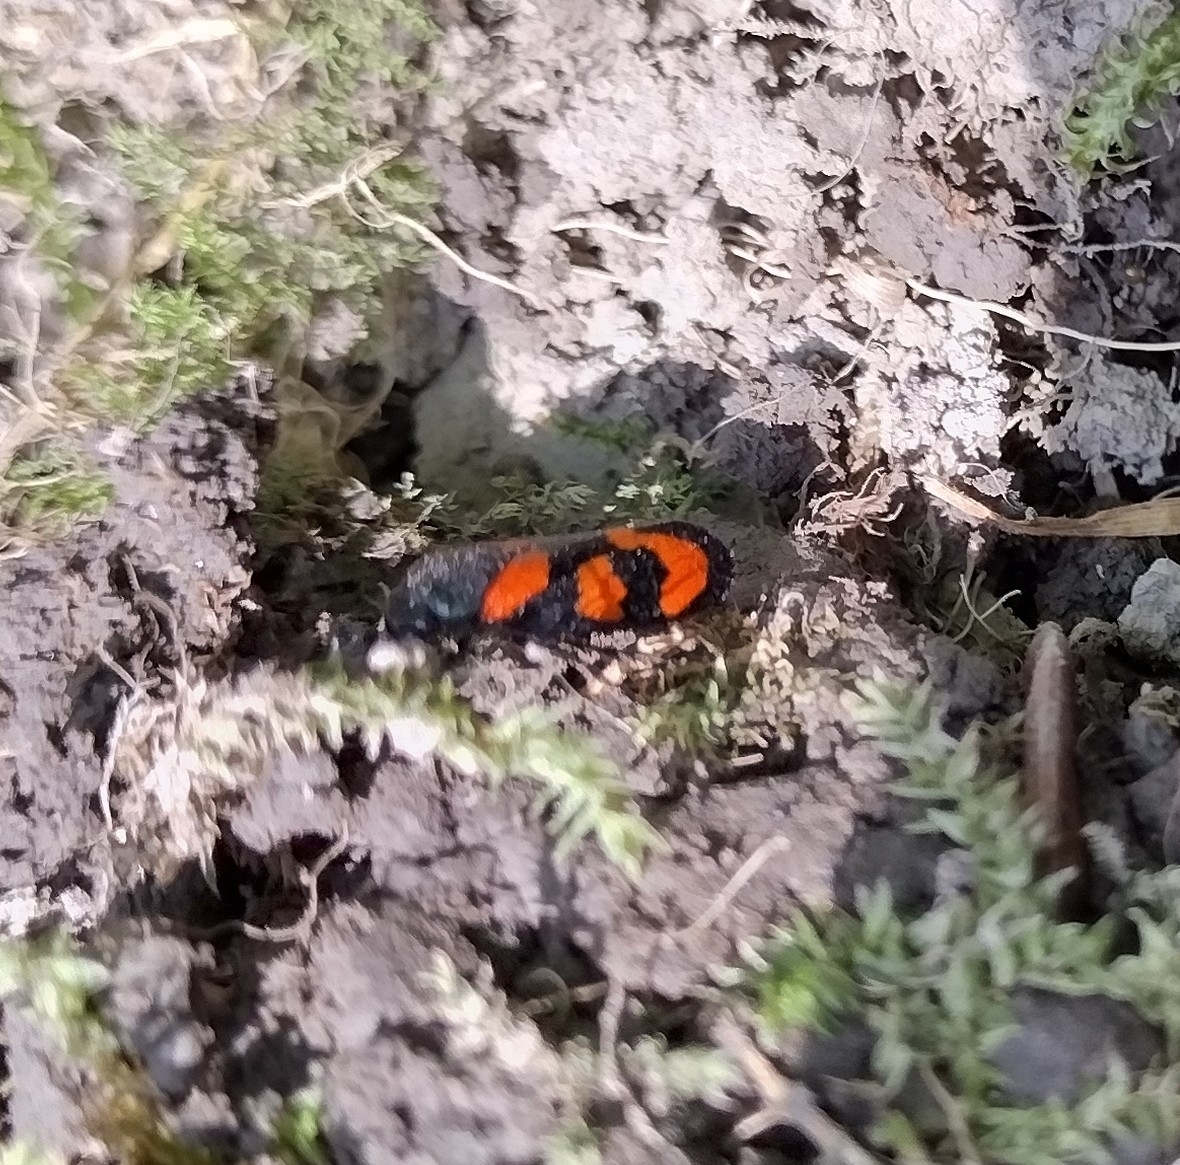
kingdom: Animalia
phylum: Arthropoda
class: Insecta
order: Hemiptera
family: Cercopidae
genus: Cercopis
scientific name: Cercopis vulnerata
